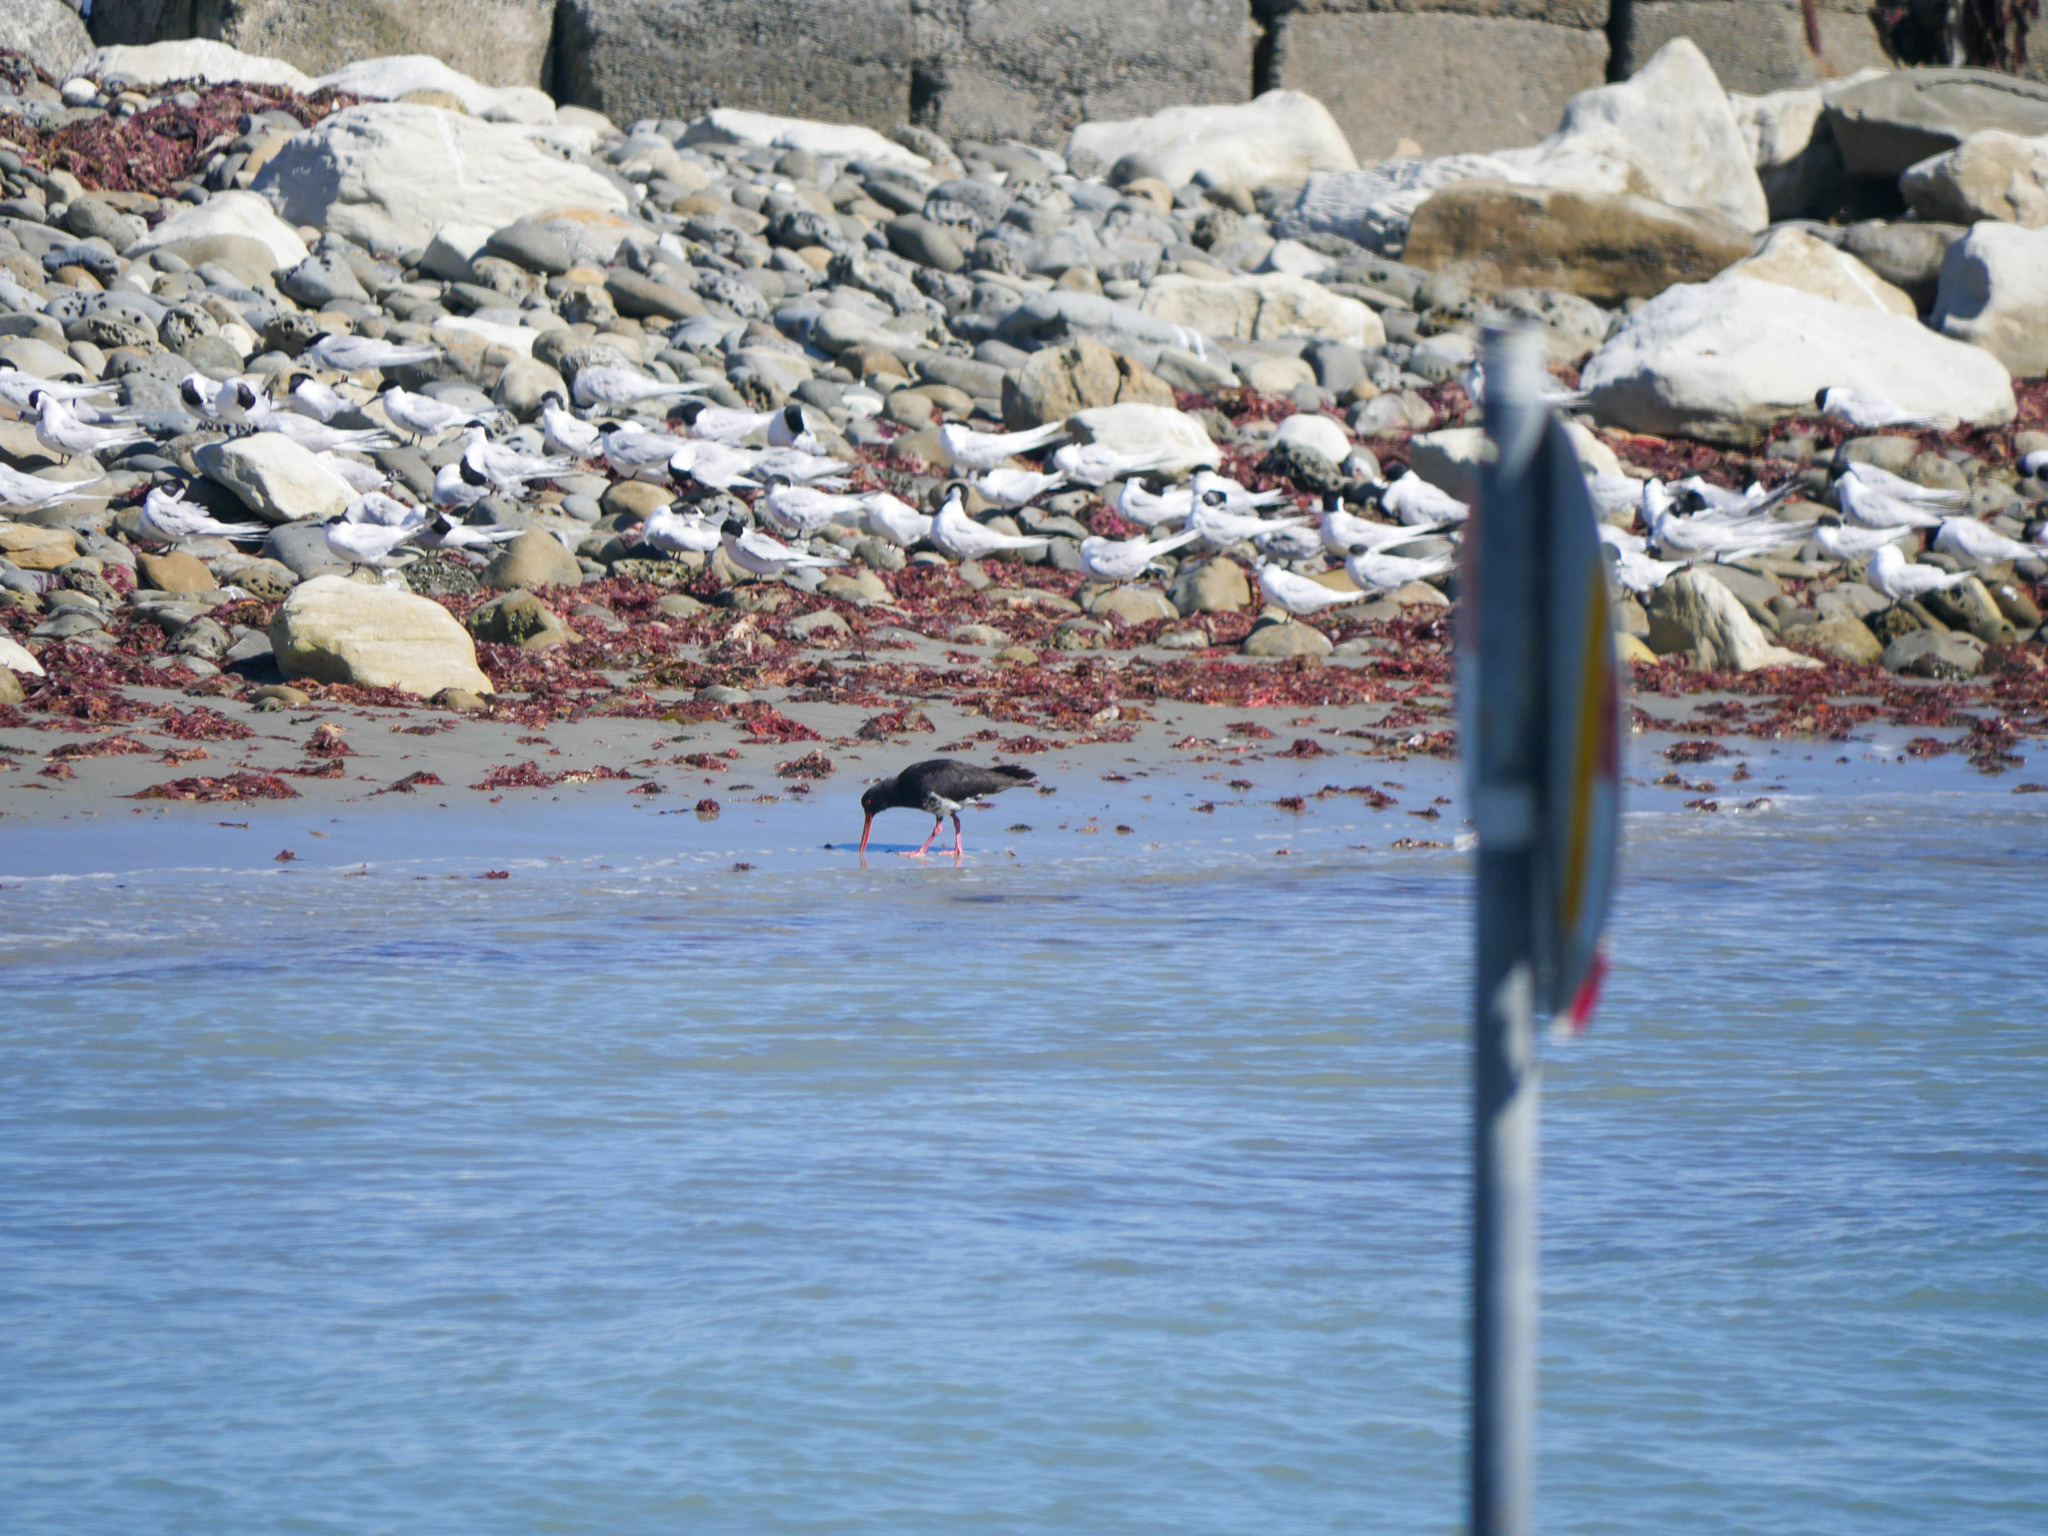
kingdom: Animalia
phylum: Chordata
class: Aves
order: Charadriiformes
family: Haematopodidae
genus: Haematopus
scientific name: Haematopus unicolor
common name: Variable oystercatcher
